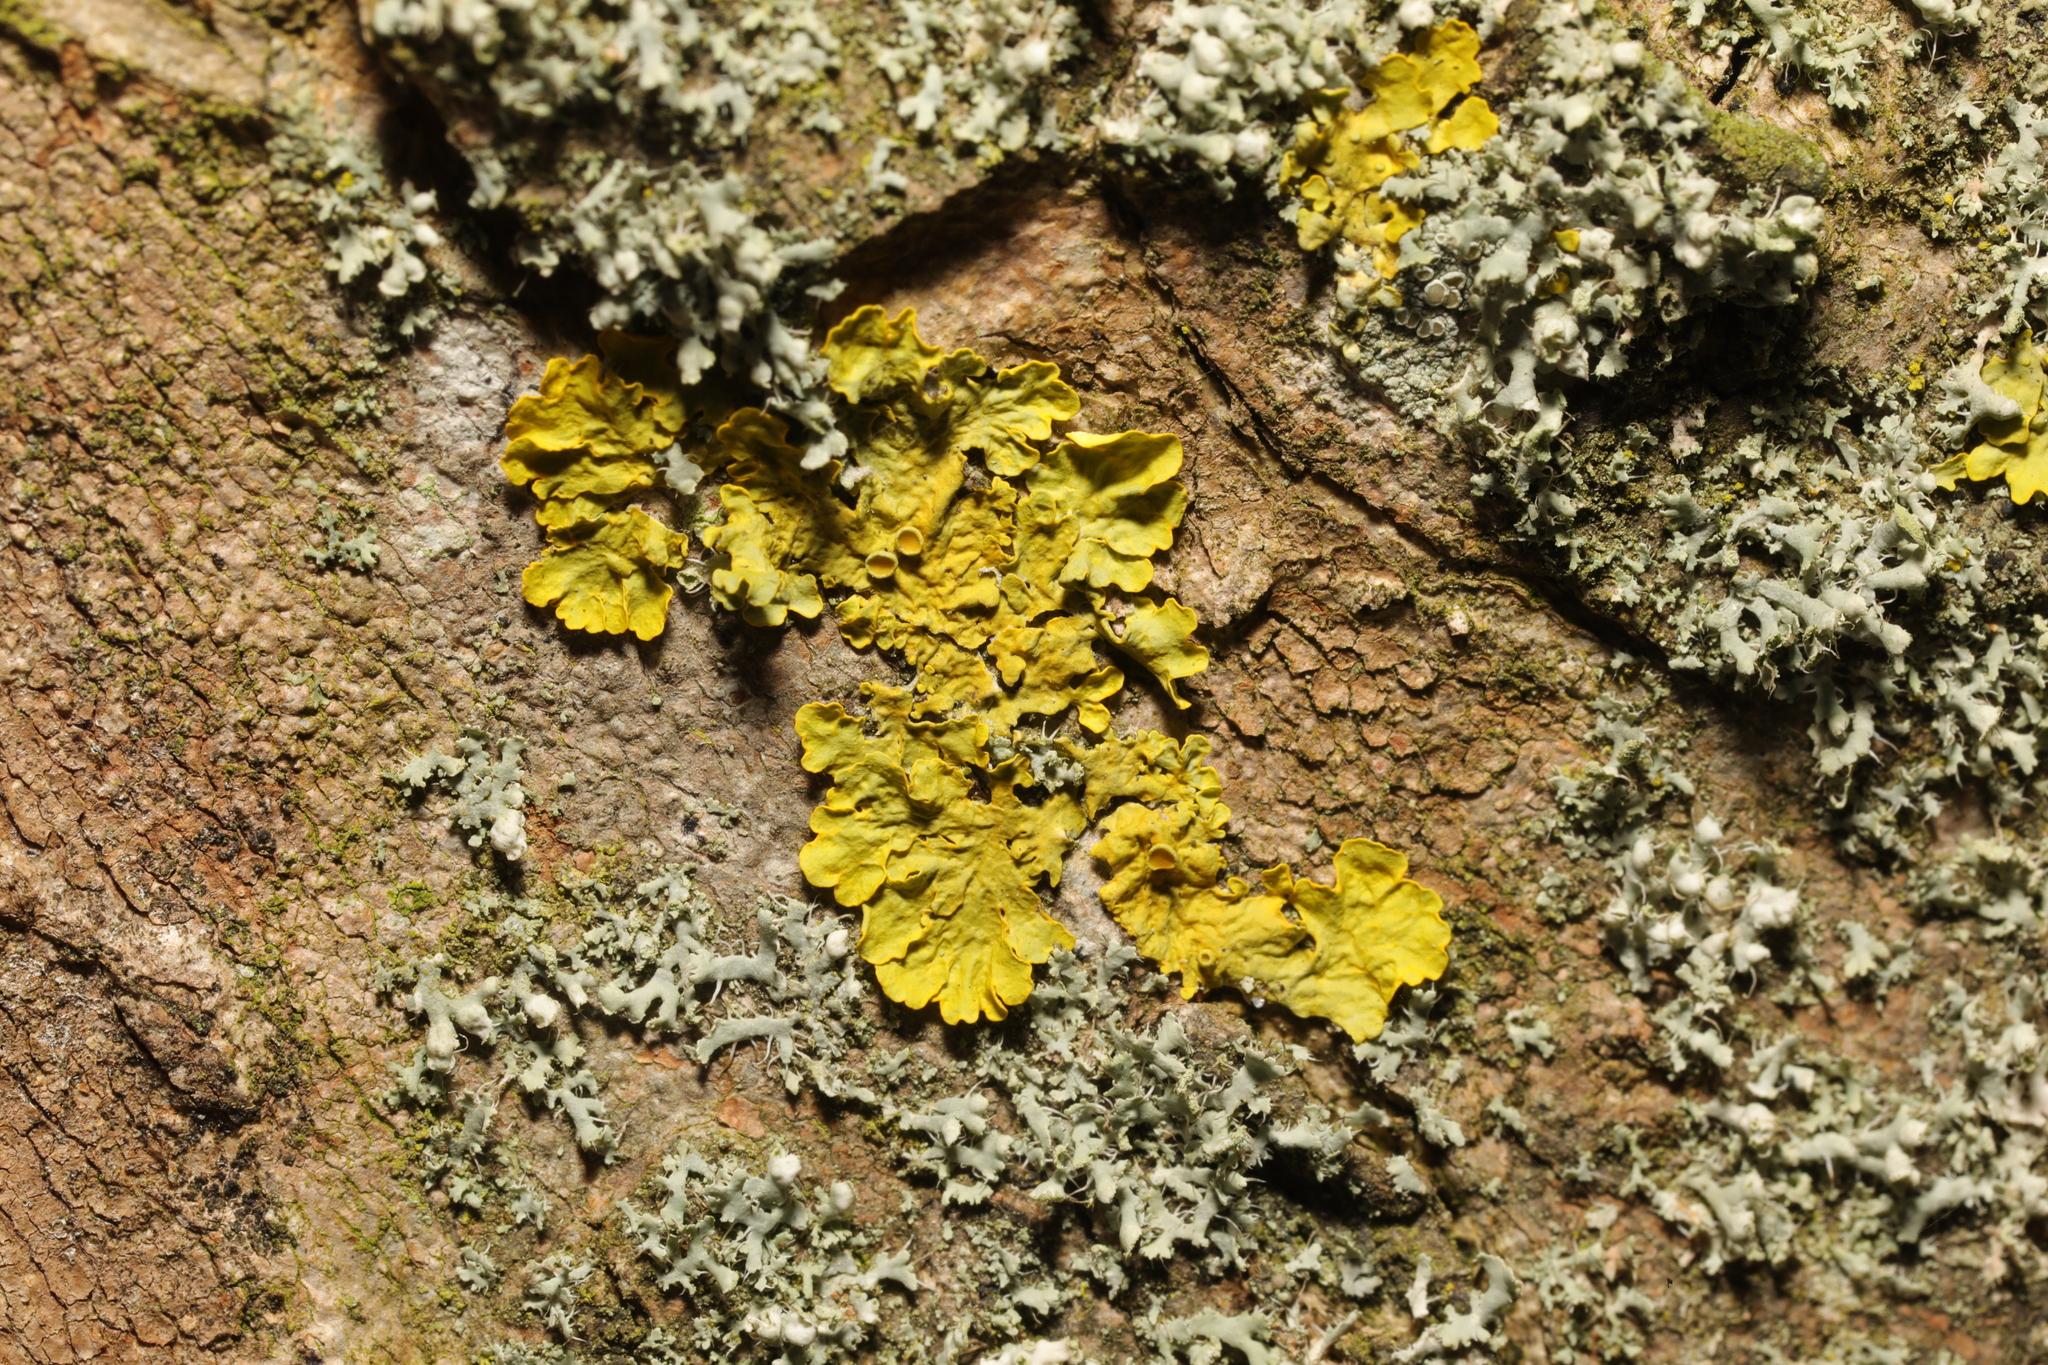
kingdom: Fungi
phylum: Ascomycota
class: Lecanoromycetes
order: Teloschistales
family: Teloschistaceae
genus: Xanthoria
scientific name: Xanthoria parietina
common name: Common orange lichen
